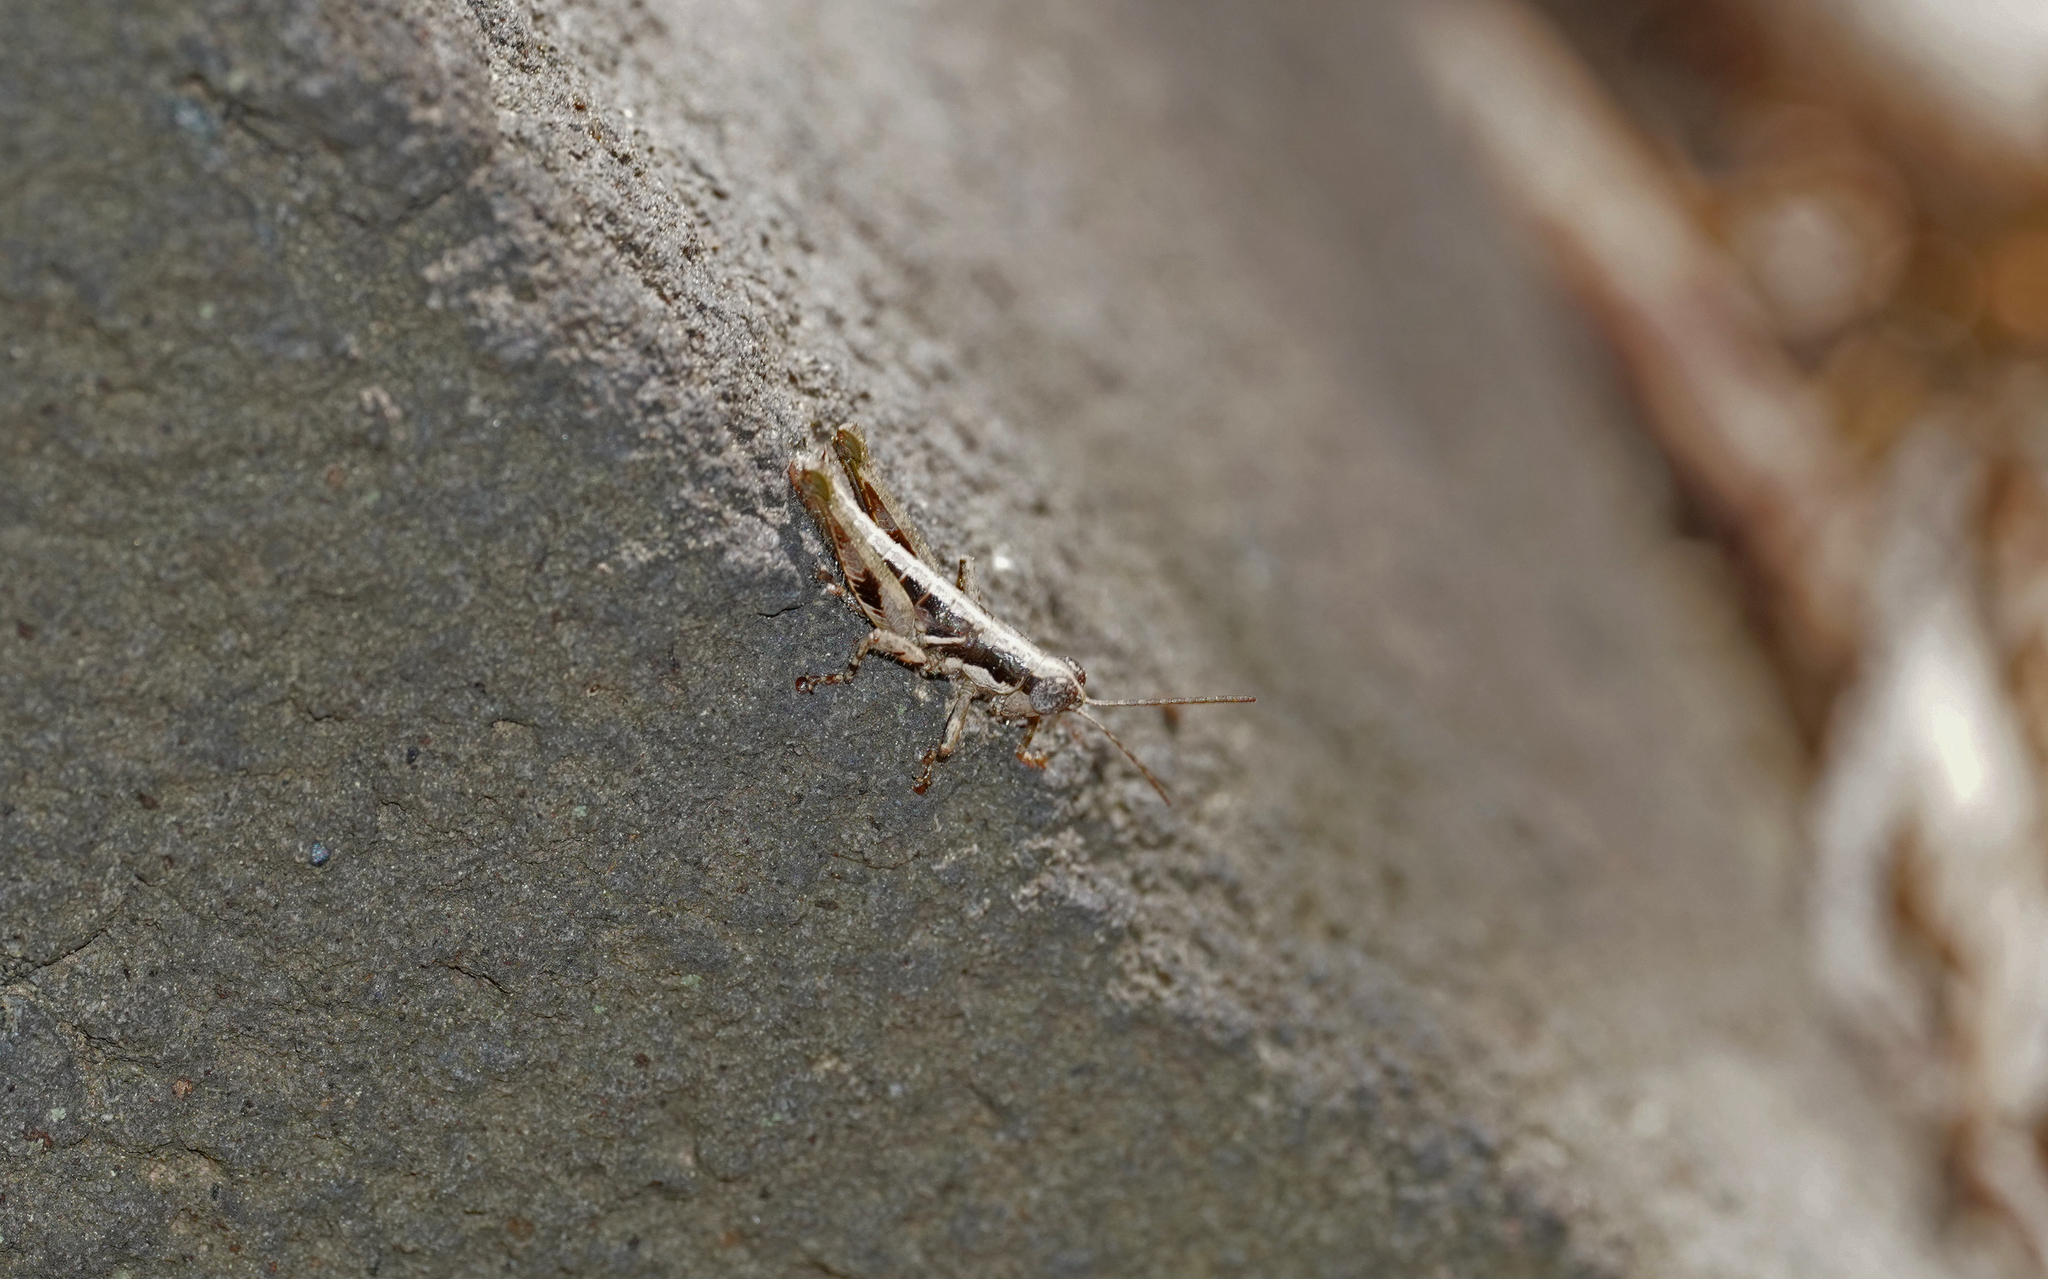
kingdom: Animalia
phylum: Arthropoda
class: Insecta
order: Orthoptera
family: Acrididae
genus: Arminda
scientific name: Arminda brunneri
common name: Tenerife rock grasshopper
